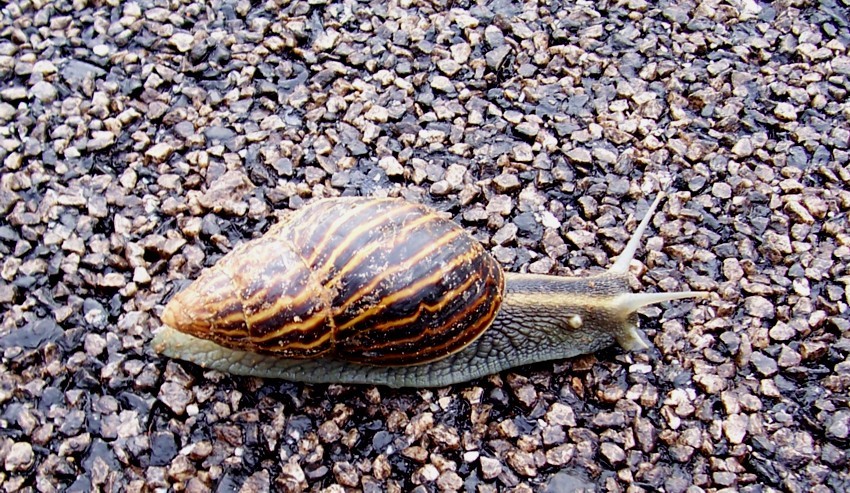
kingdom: Animalia
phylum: Mollusca
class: Gastropoda
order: Stylommatophora
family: Achatinidae
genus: Cochlitoma
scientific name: Cochlitoma zebra
